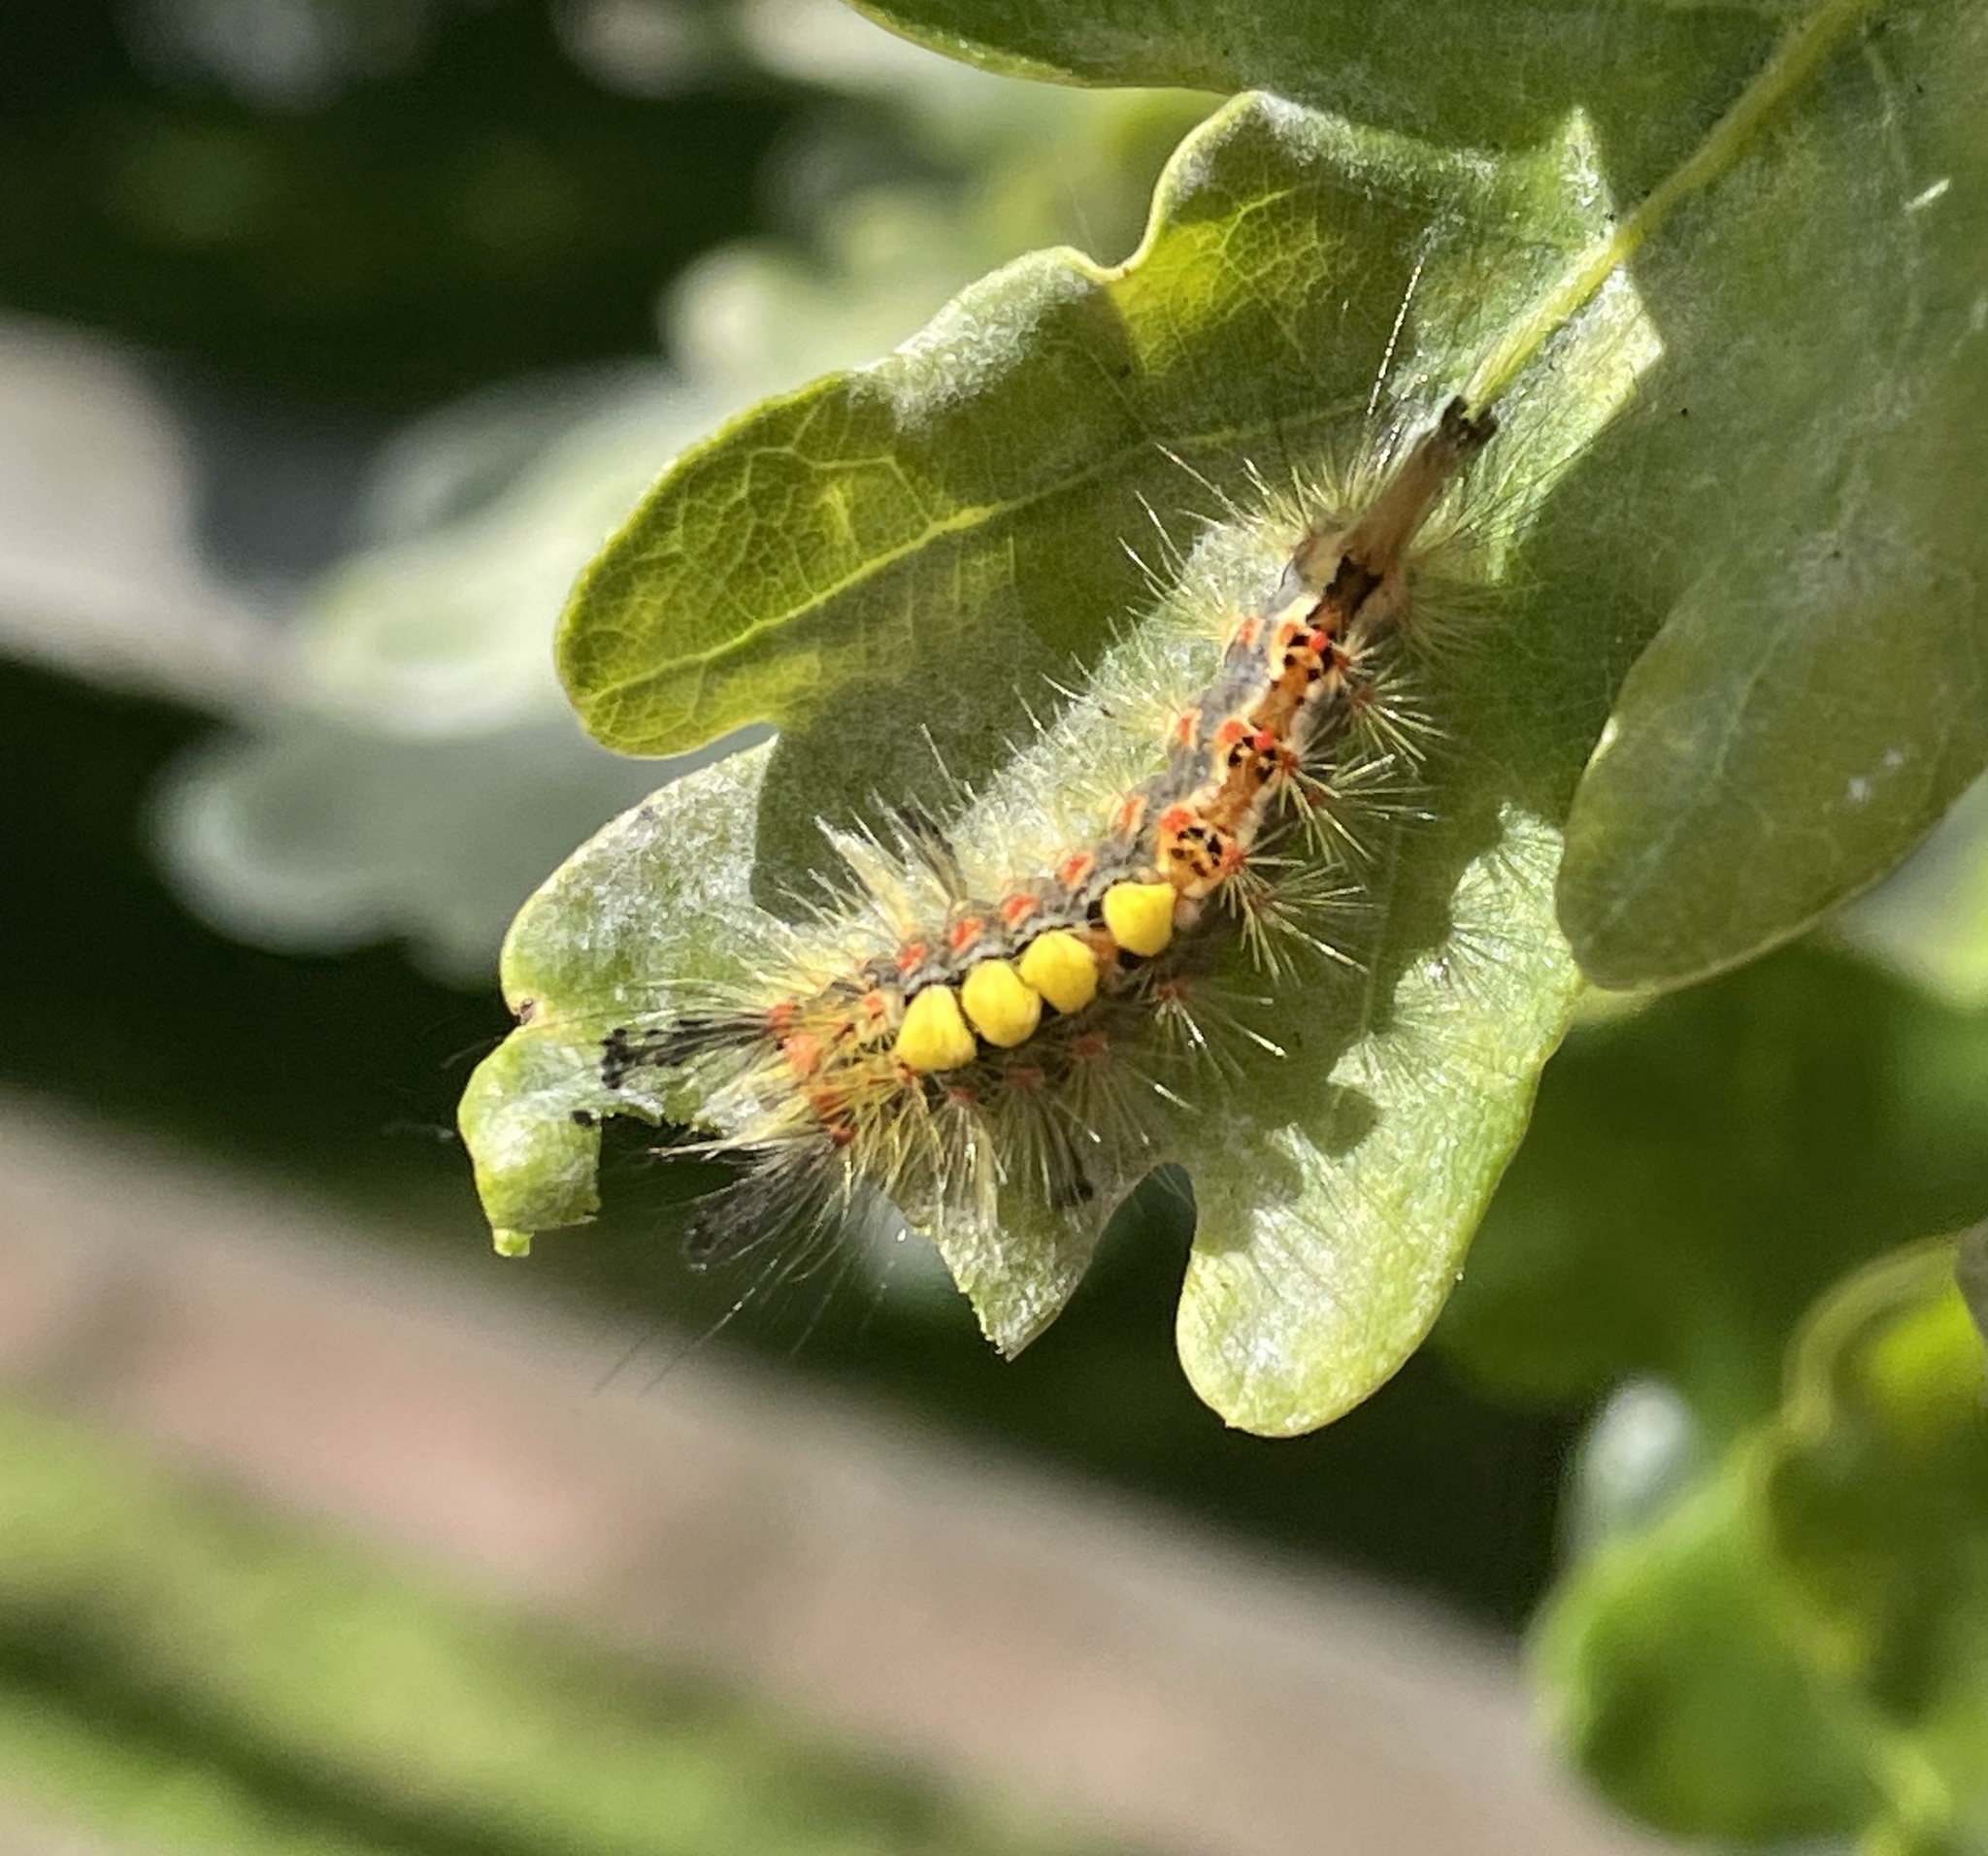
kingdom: Animalia
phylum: Arthropoda
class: Insecta
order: Lepidoptera
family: Erebidae
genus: Orgyia
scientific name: Orgyia antiqua
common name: Vapourer
